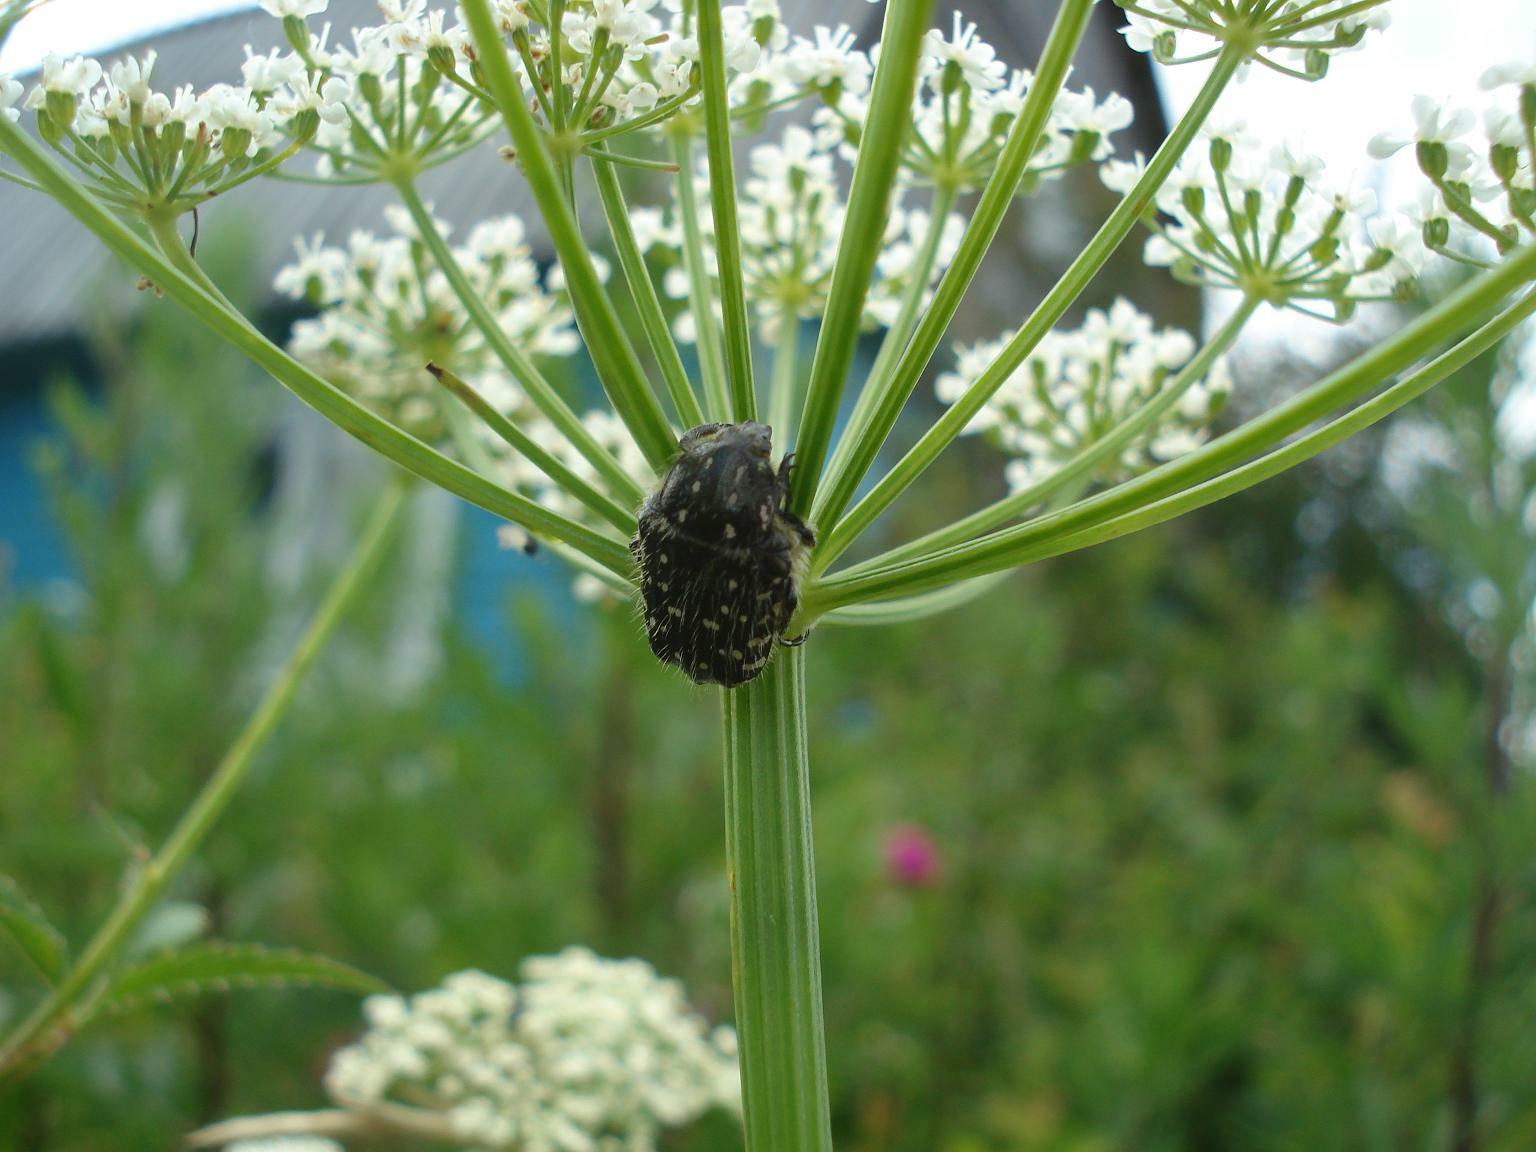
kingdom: Animalia
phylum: Arthropoda
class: Insecta
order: Coleoptera
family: Scarabaeidae
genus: Oxythyrea
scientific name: Oxythyrea funesta
